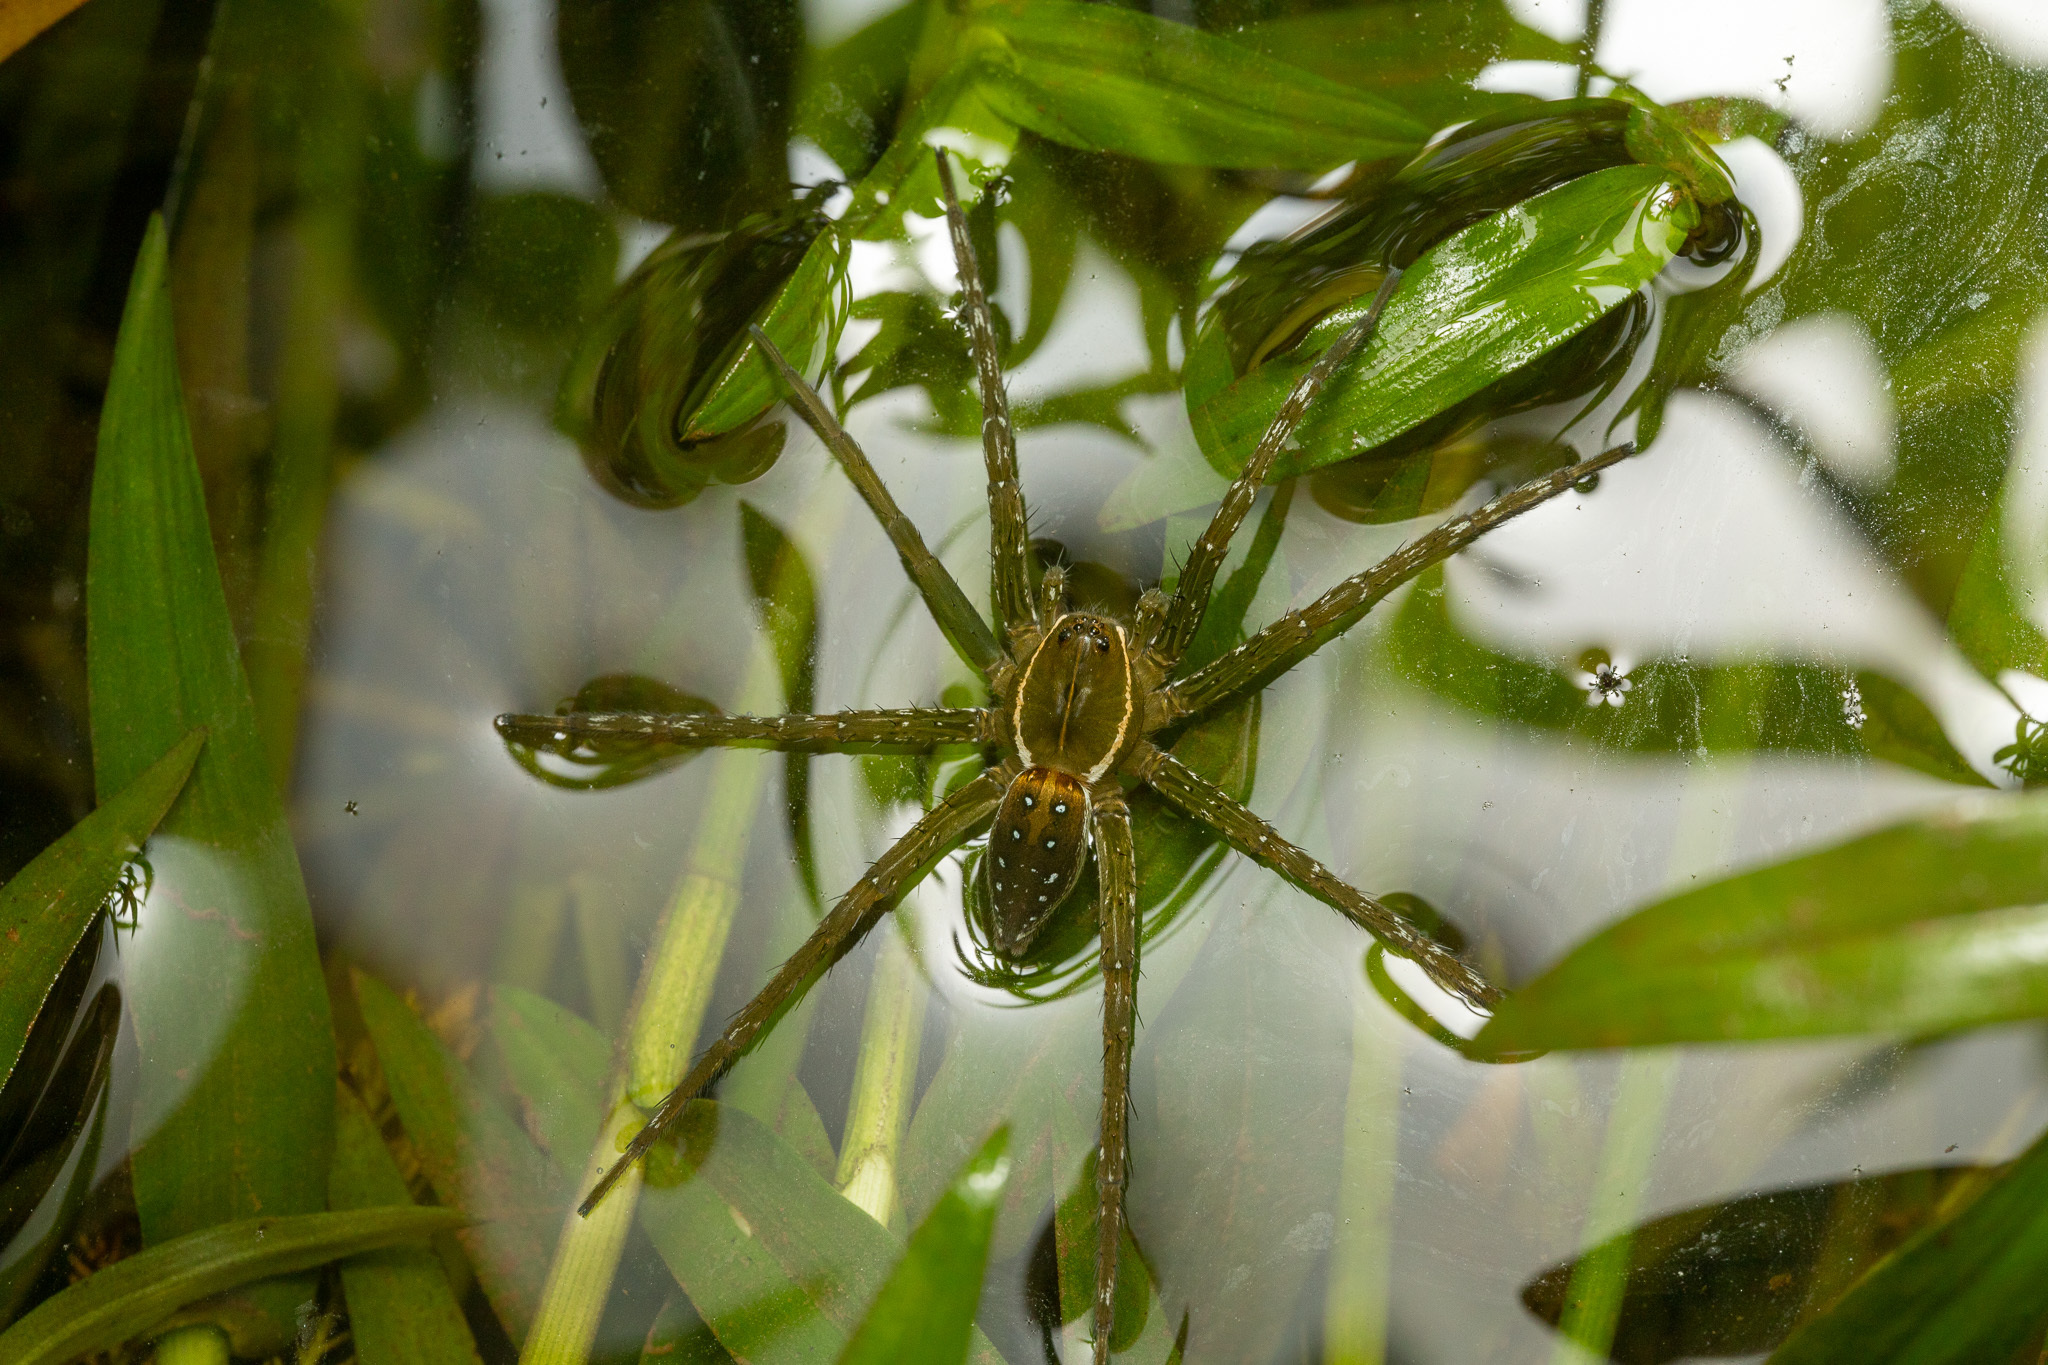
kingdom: Animalia
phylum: Arthropoda
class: Arachnida
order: Araneae
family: Pisauridae
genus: Dolomedes
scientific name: Dolomedes triton
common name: Six-spotted fishing spider
